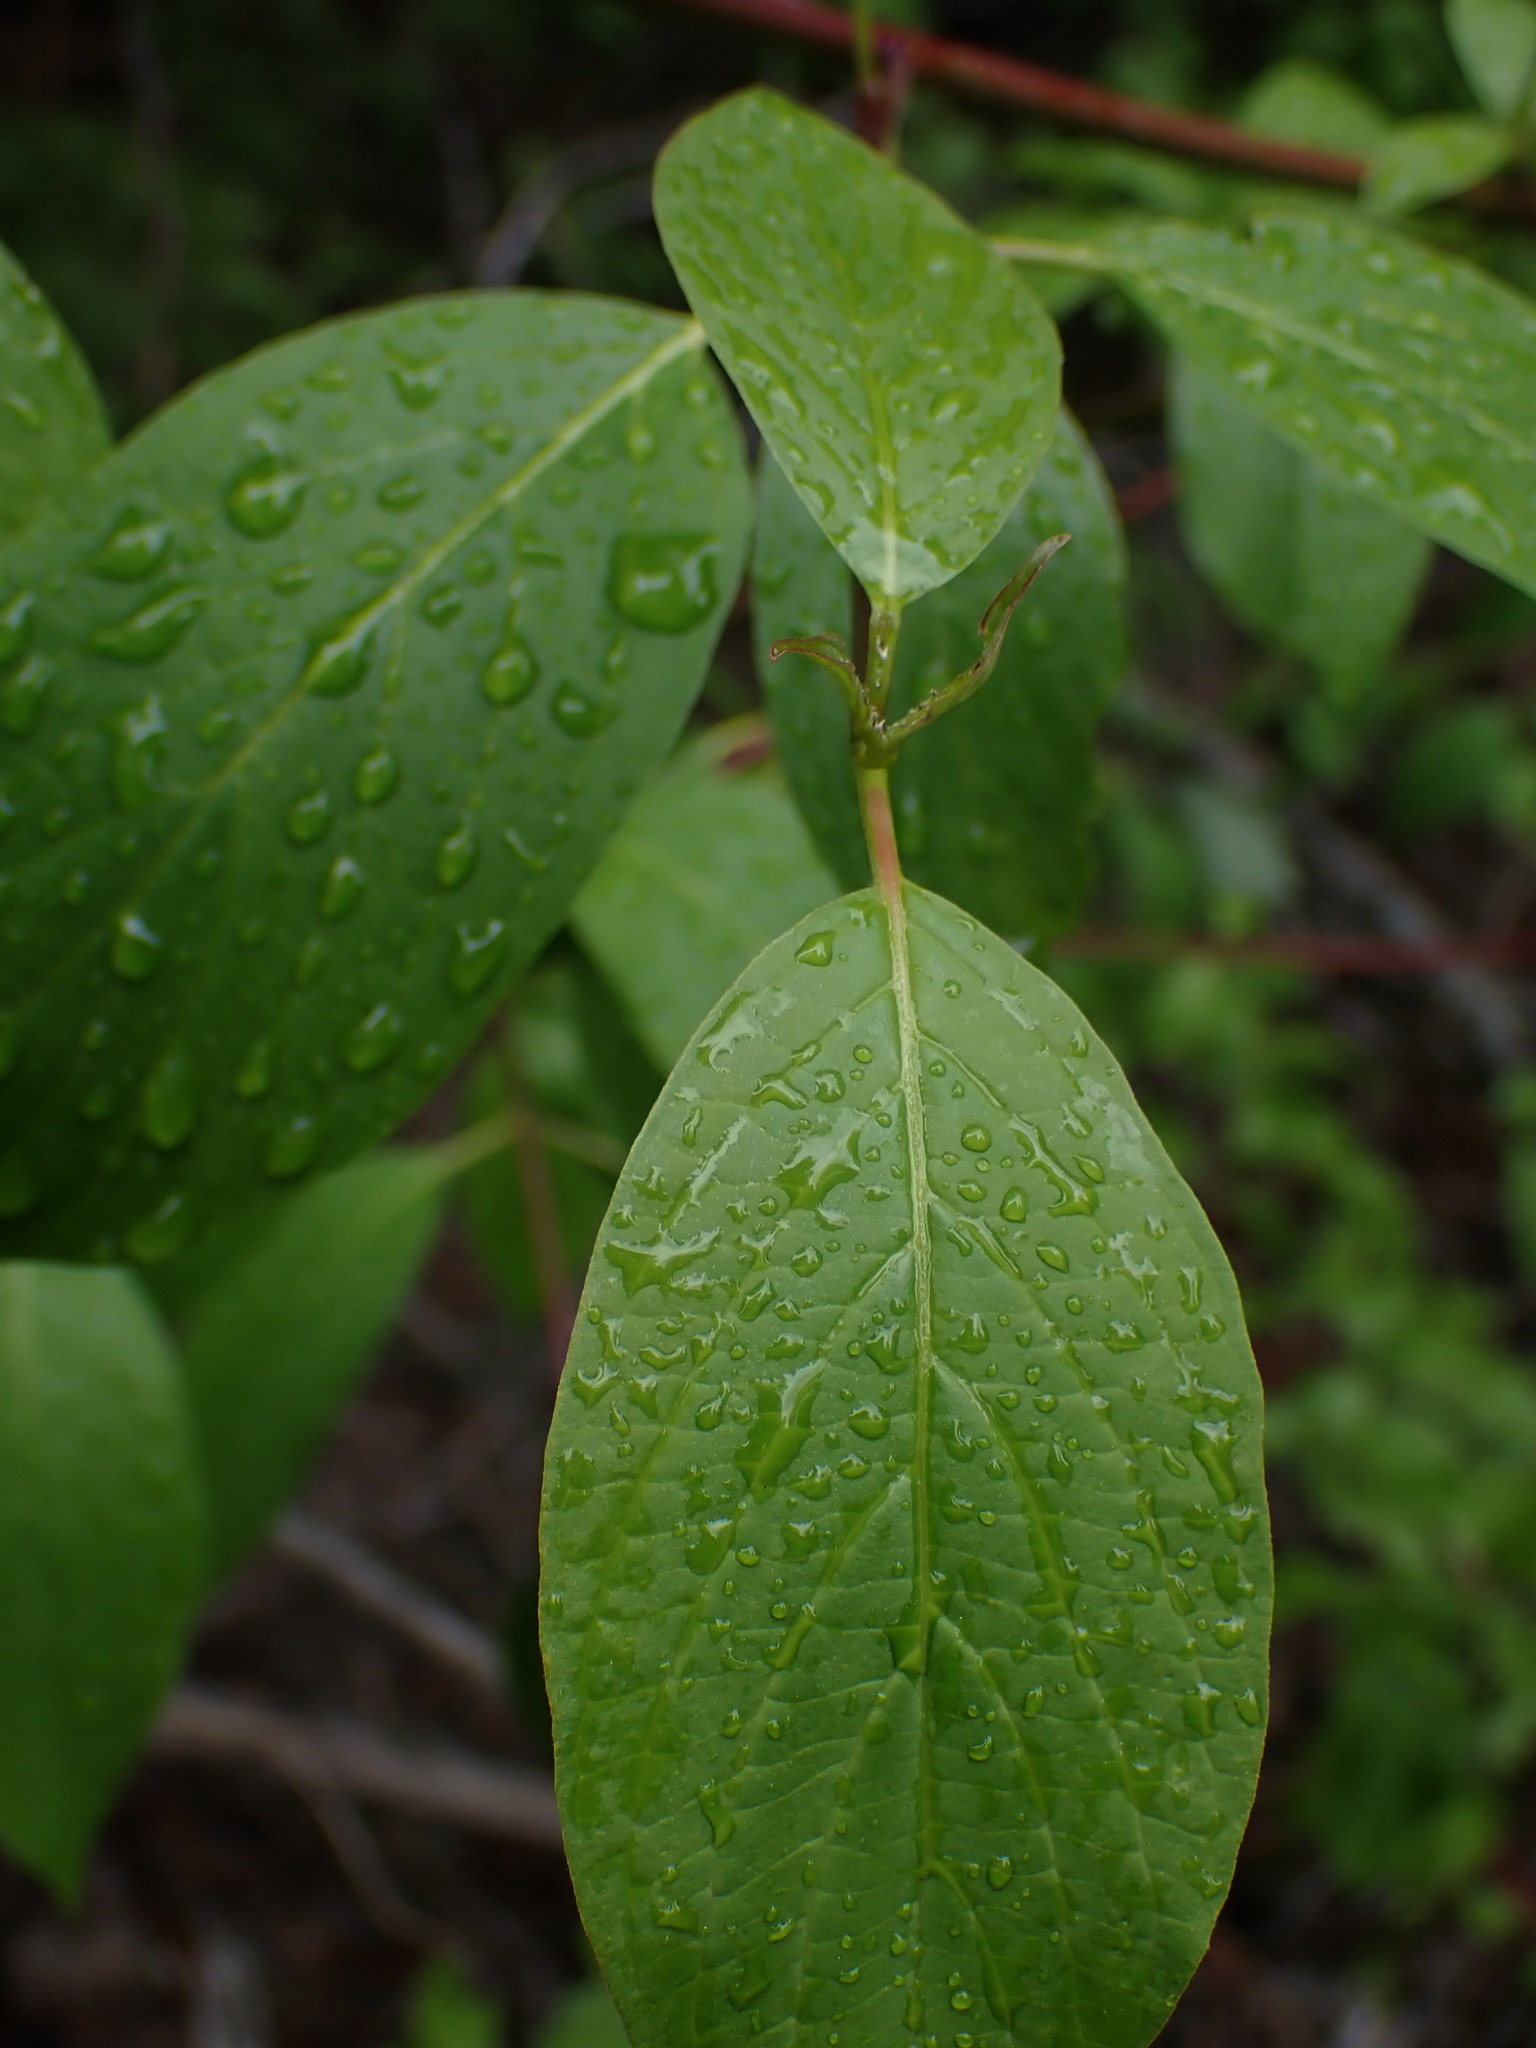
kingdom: Plantae
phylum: Tracheophyta
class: Magnoliopsida
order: Cornales
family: Cornaceae
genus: Cornus
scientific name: Cornus sericea
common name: Red-osier dogwood
